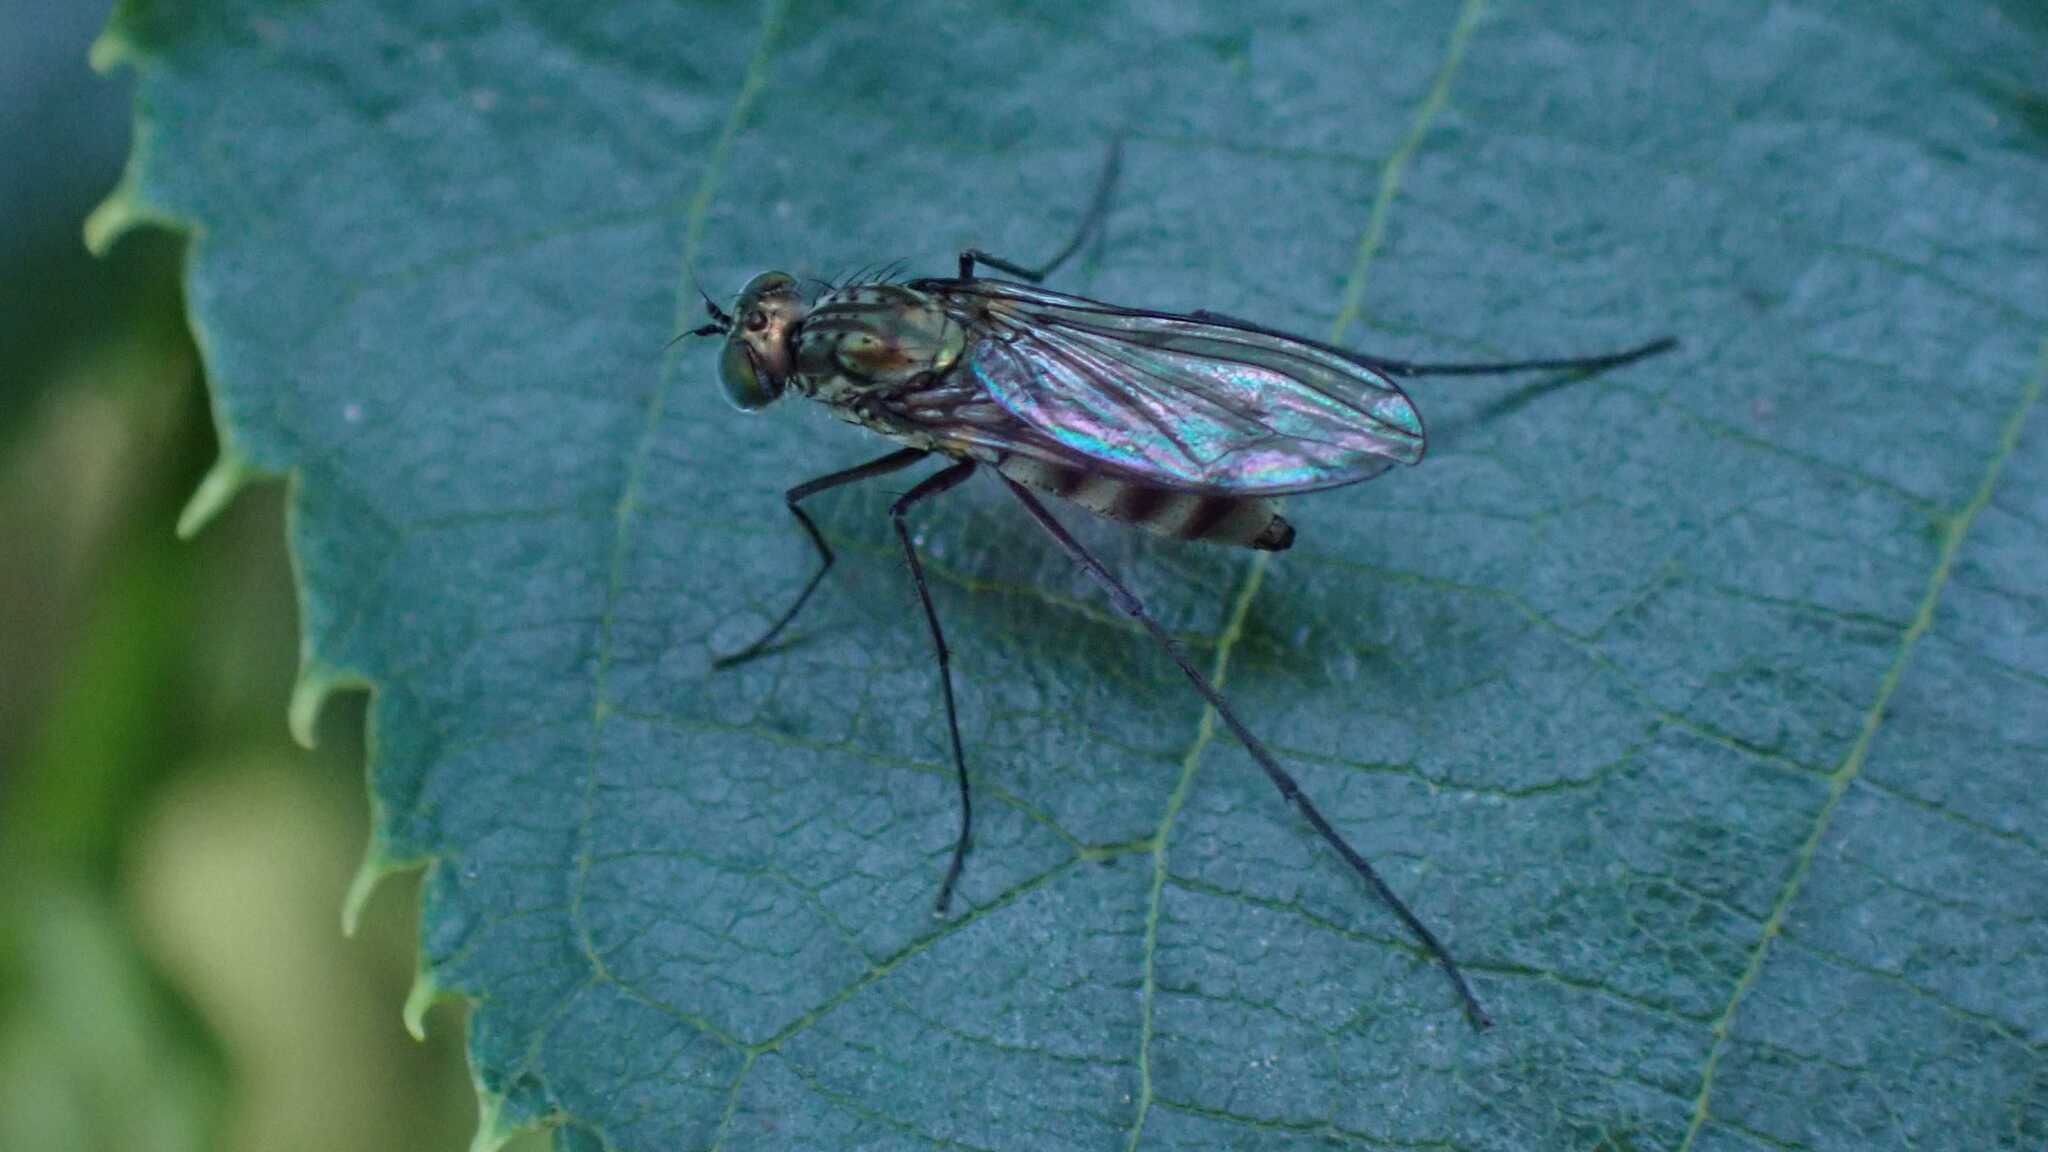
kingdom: Animalia
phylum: Arthropoda
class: Insecta
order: Diptera
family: Dolichopodidae
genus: Liancalus
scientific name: Liancalus virens
